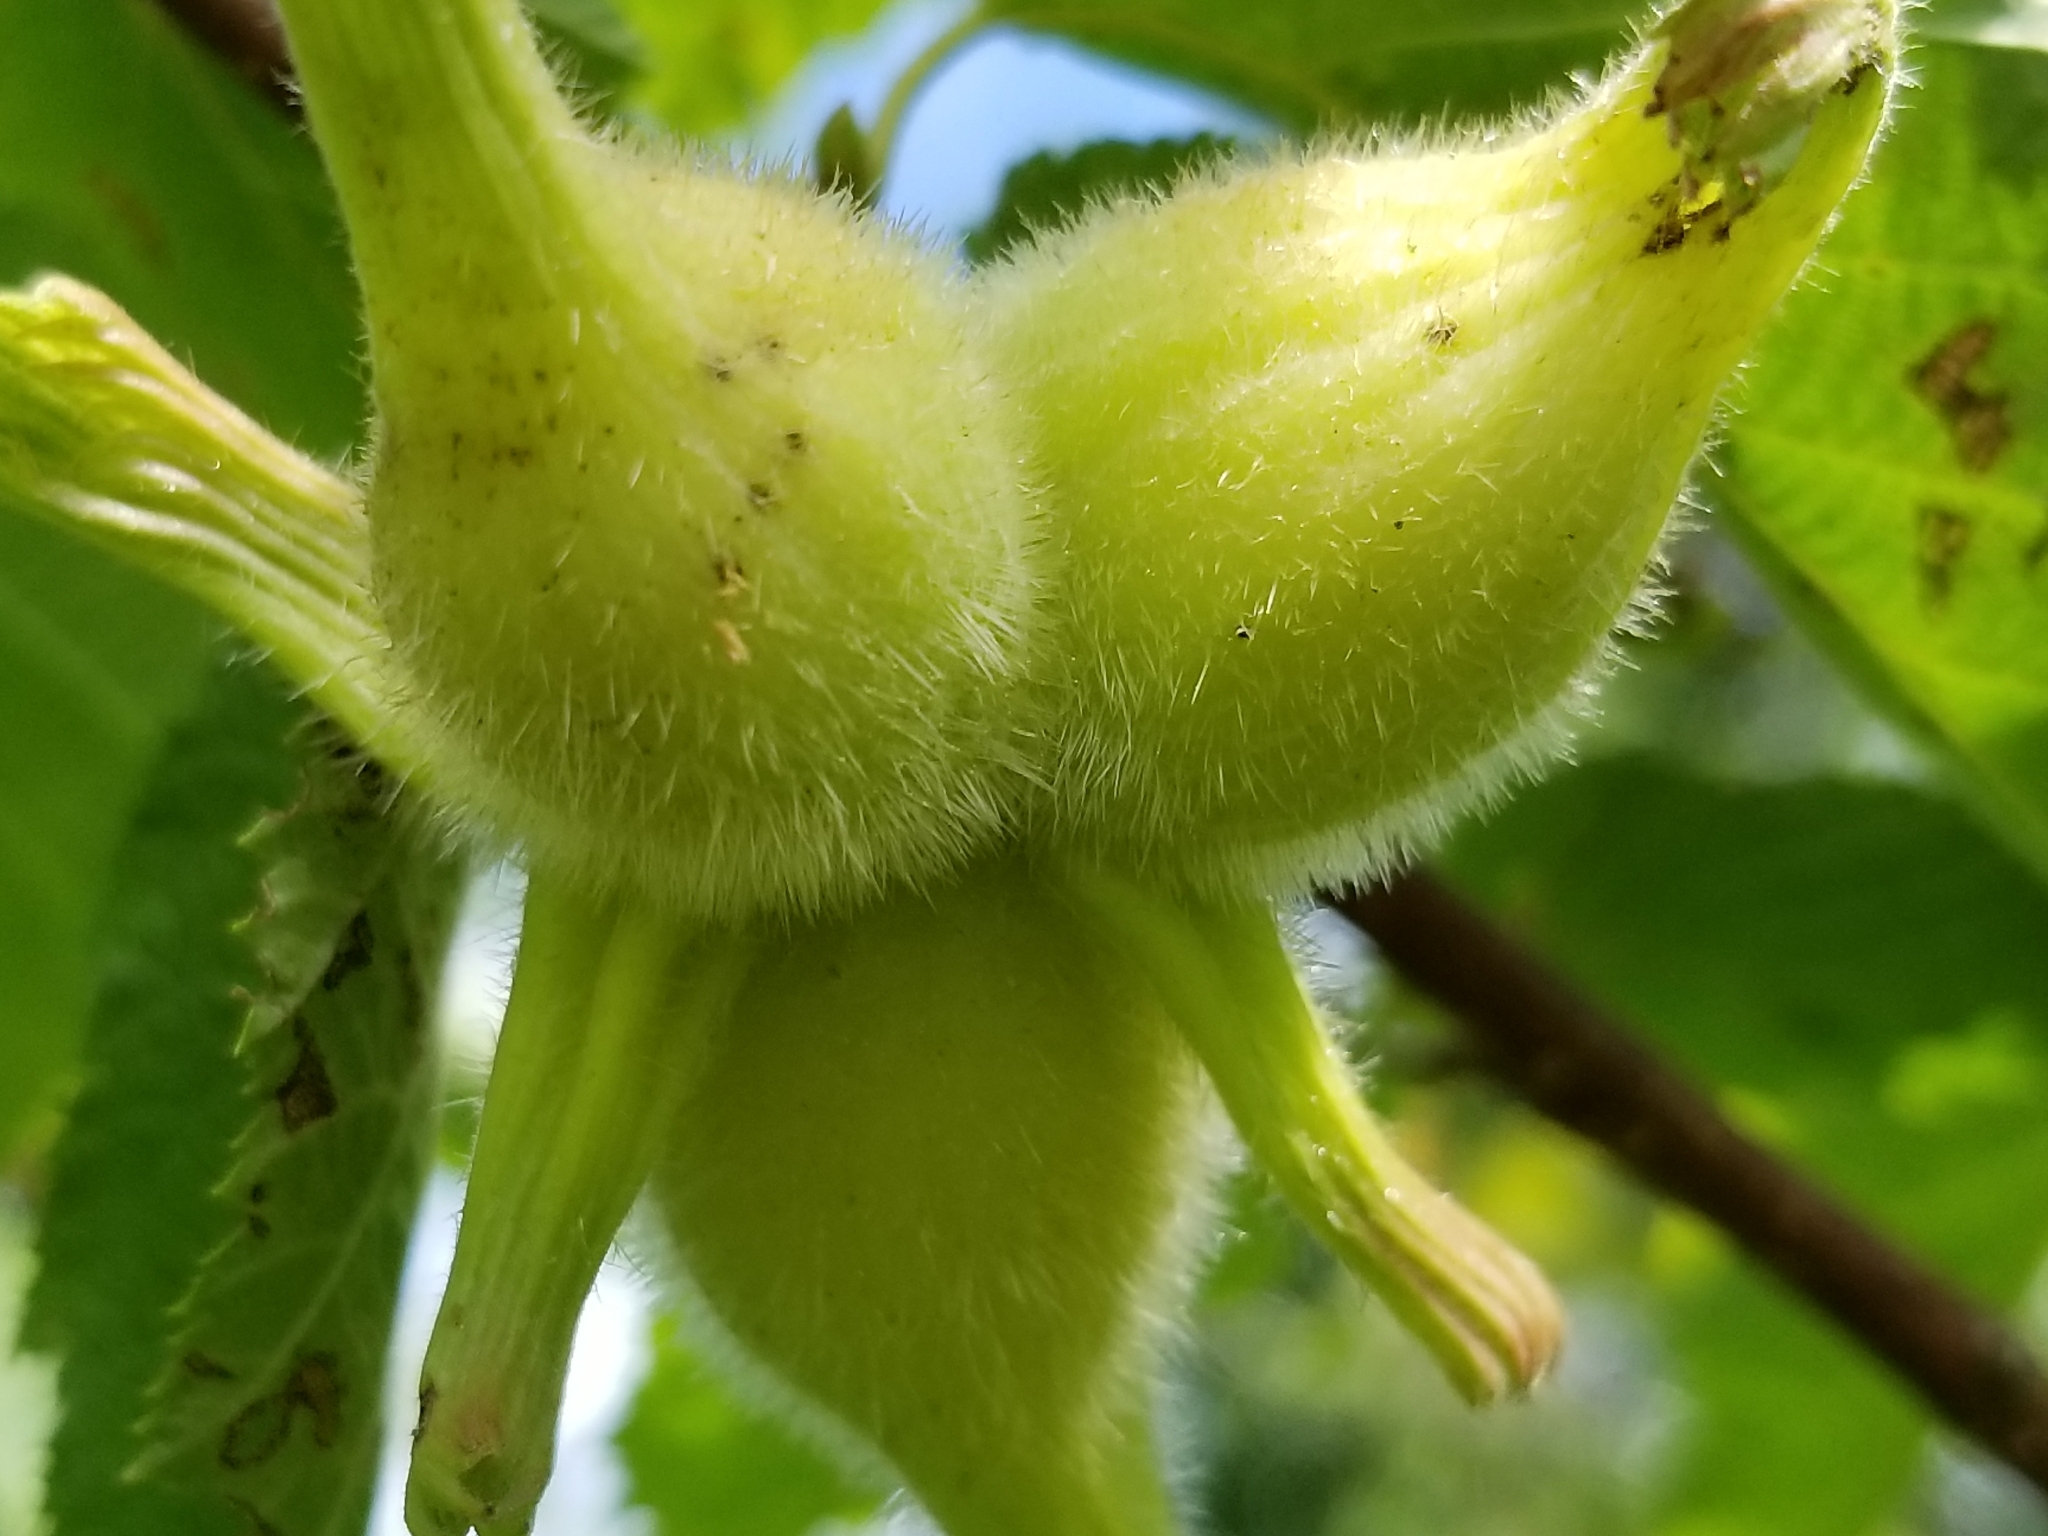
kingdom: Plantae
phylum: Tracheophyta
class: Magnoliopsida
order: Fagales
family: Betulaceae
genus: Corylus
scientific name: Corylus cornuta
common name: Beaked hazel
